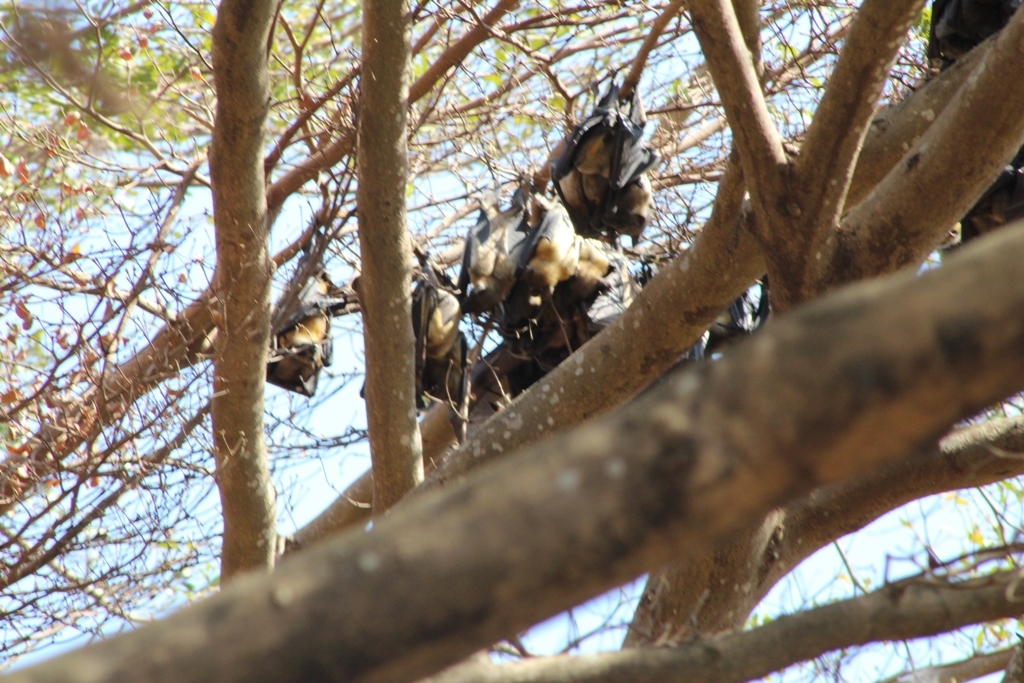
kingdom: Animalia
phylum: Chordata
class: Mammalia
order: Chiroptera
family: Pteropodidae
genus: Eidolon
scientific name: Eidolon helvum
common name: Straw-colored fruit bat
